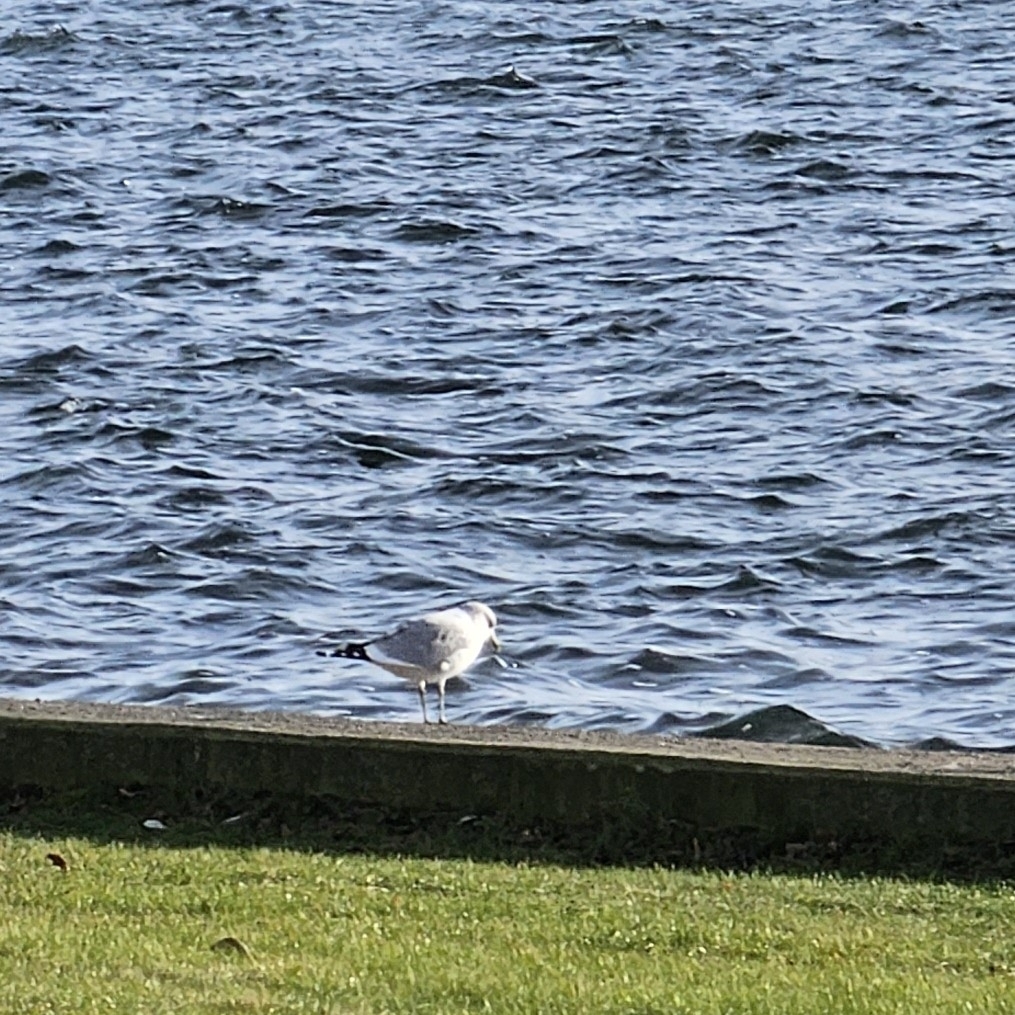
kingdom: Animalia
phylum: Chordata
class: Aves
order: Charadriiformes
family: Laridae
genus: Larus
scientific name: Larus canus
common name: Mew gull
